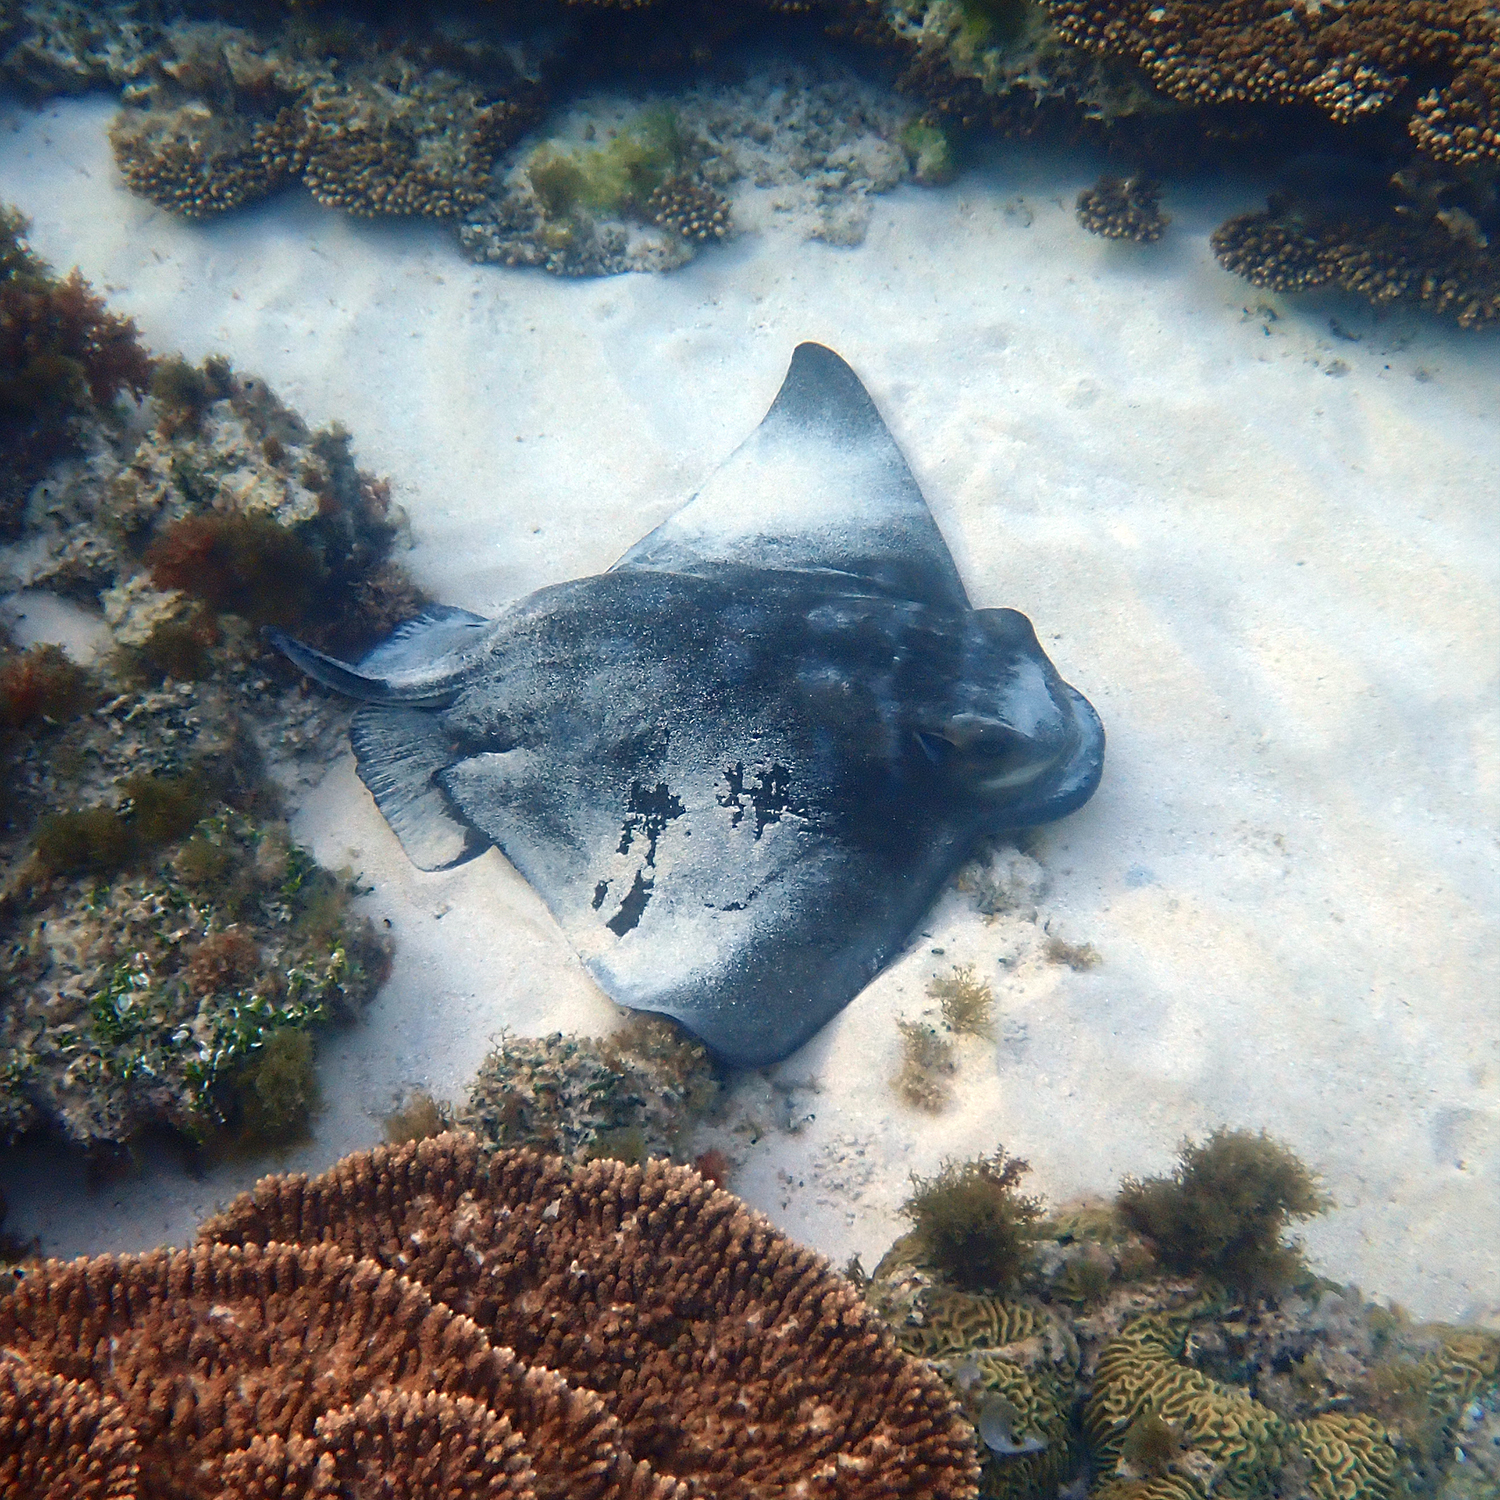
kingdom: Animalia
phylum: Chordata
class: Elasmobranchii
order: Myliobatiformes
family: Myliobatidae
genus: Myliobatis
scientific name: Myliobatis tenuicaudatus
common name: Eagle ray
